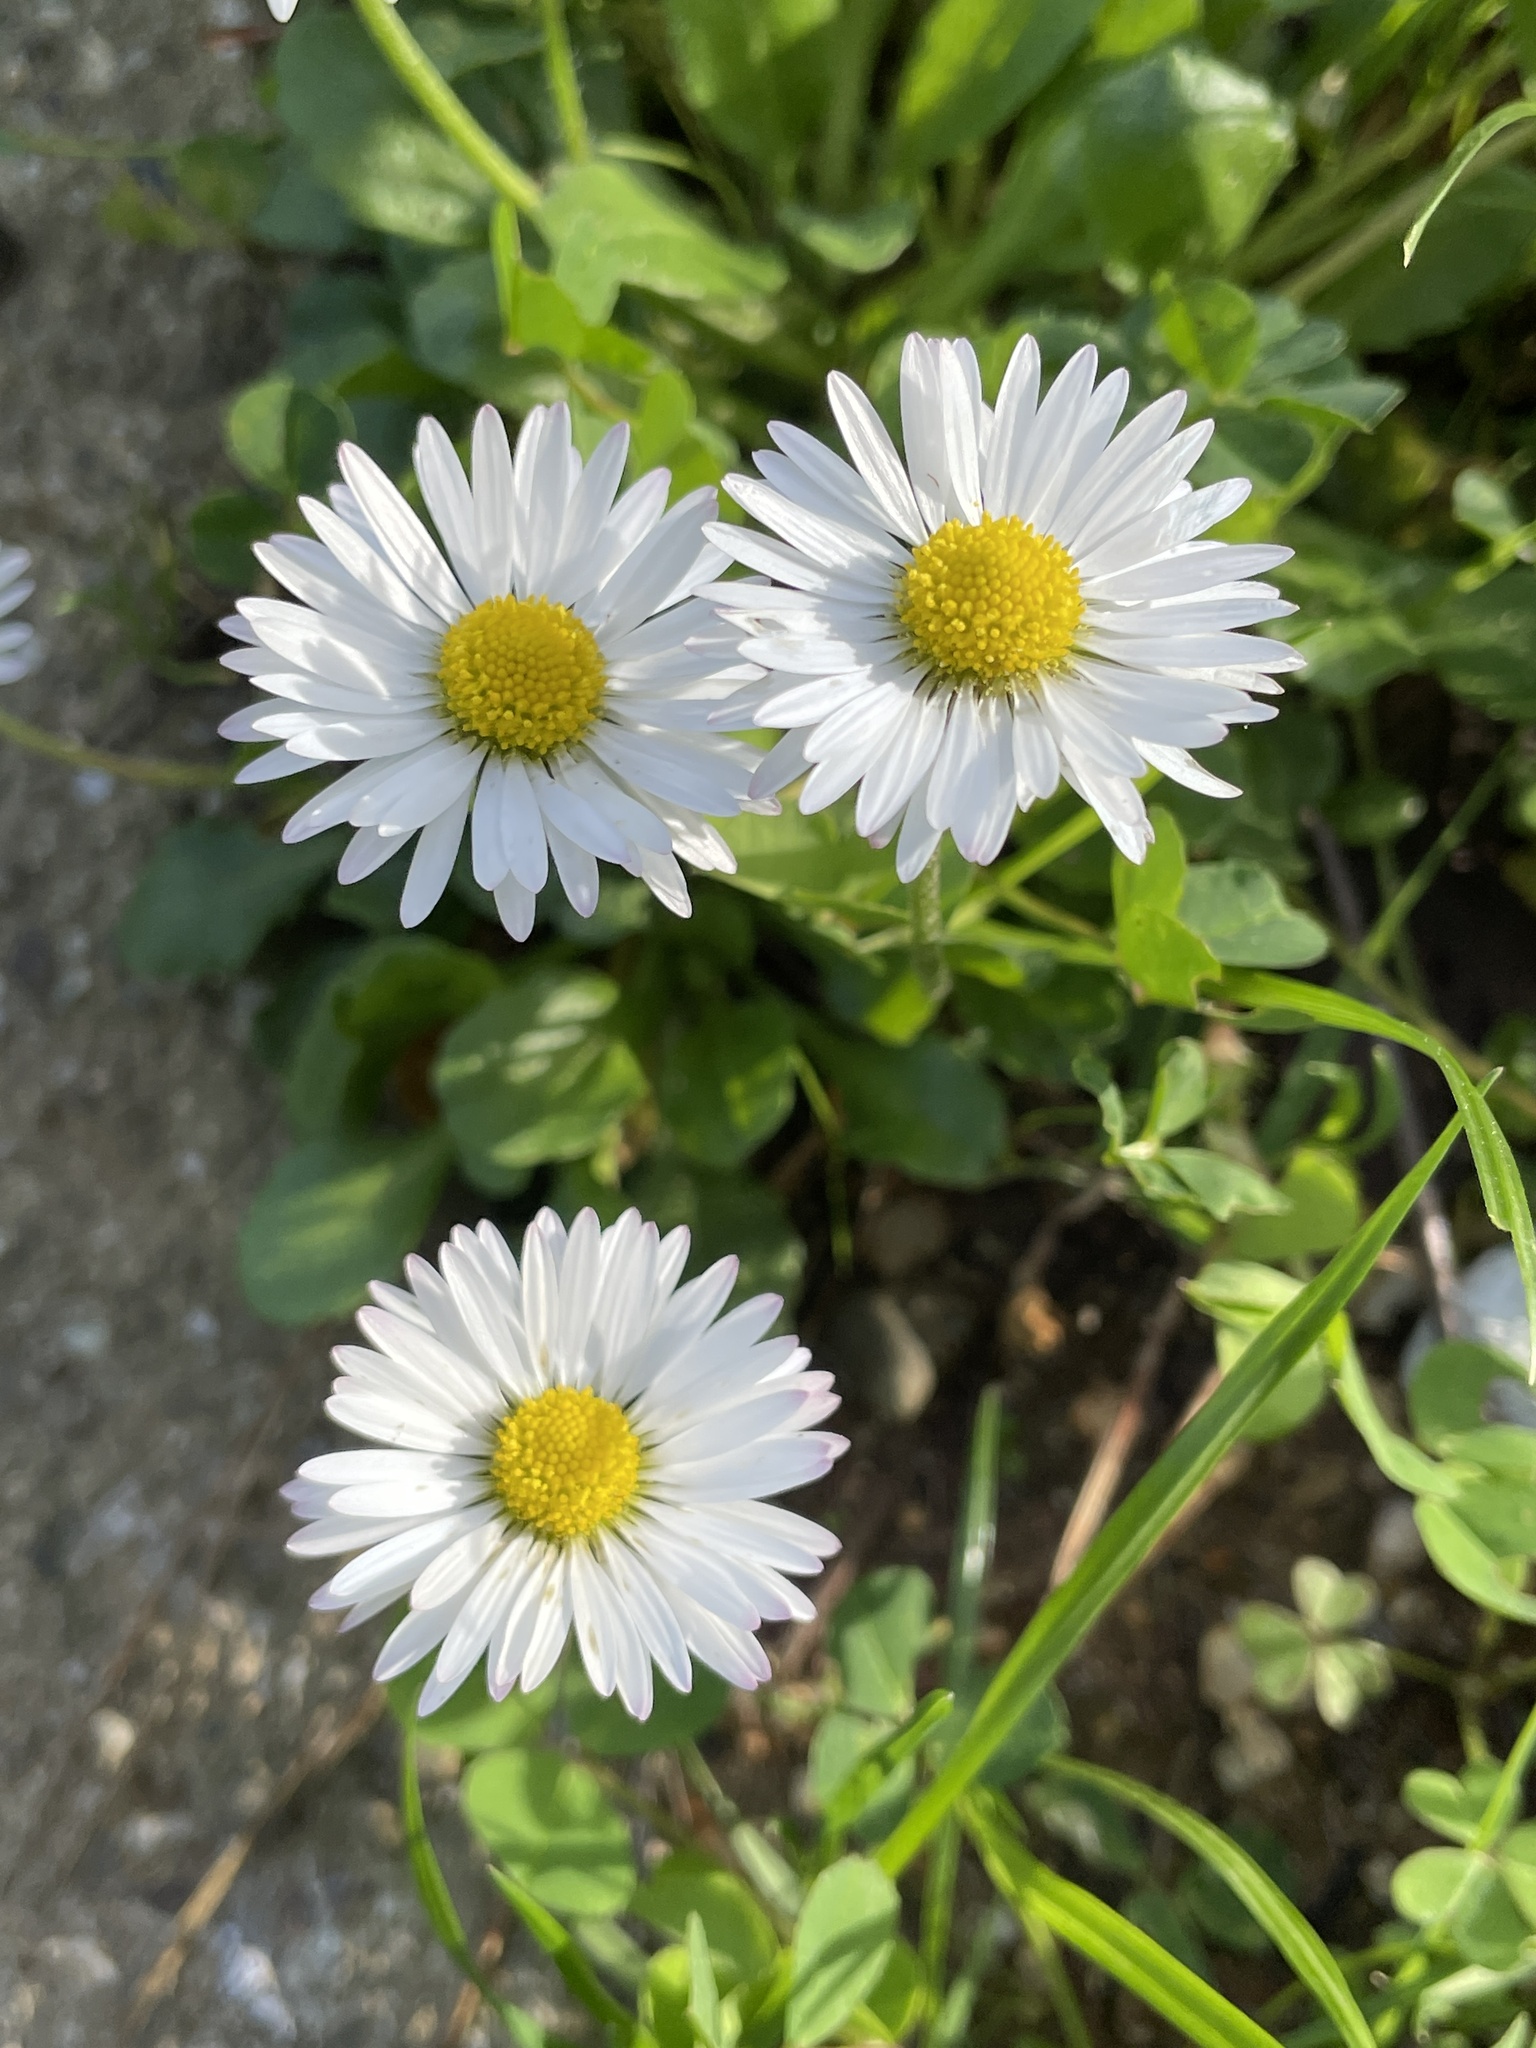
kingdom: Plantae
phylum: Tracheophyta
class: Magnoliopsida
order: Asterales
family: Asteraceae
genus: Bellis
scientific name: Bellis perennis
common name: Lawndaisy
